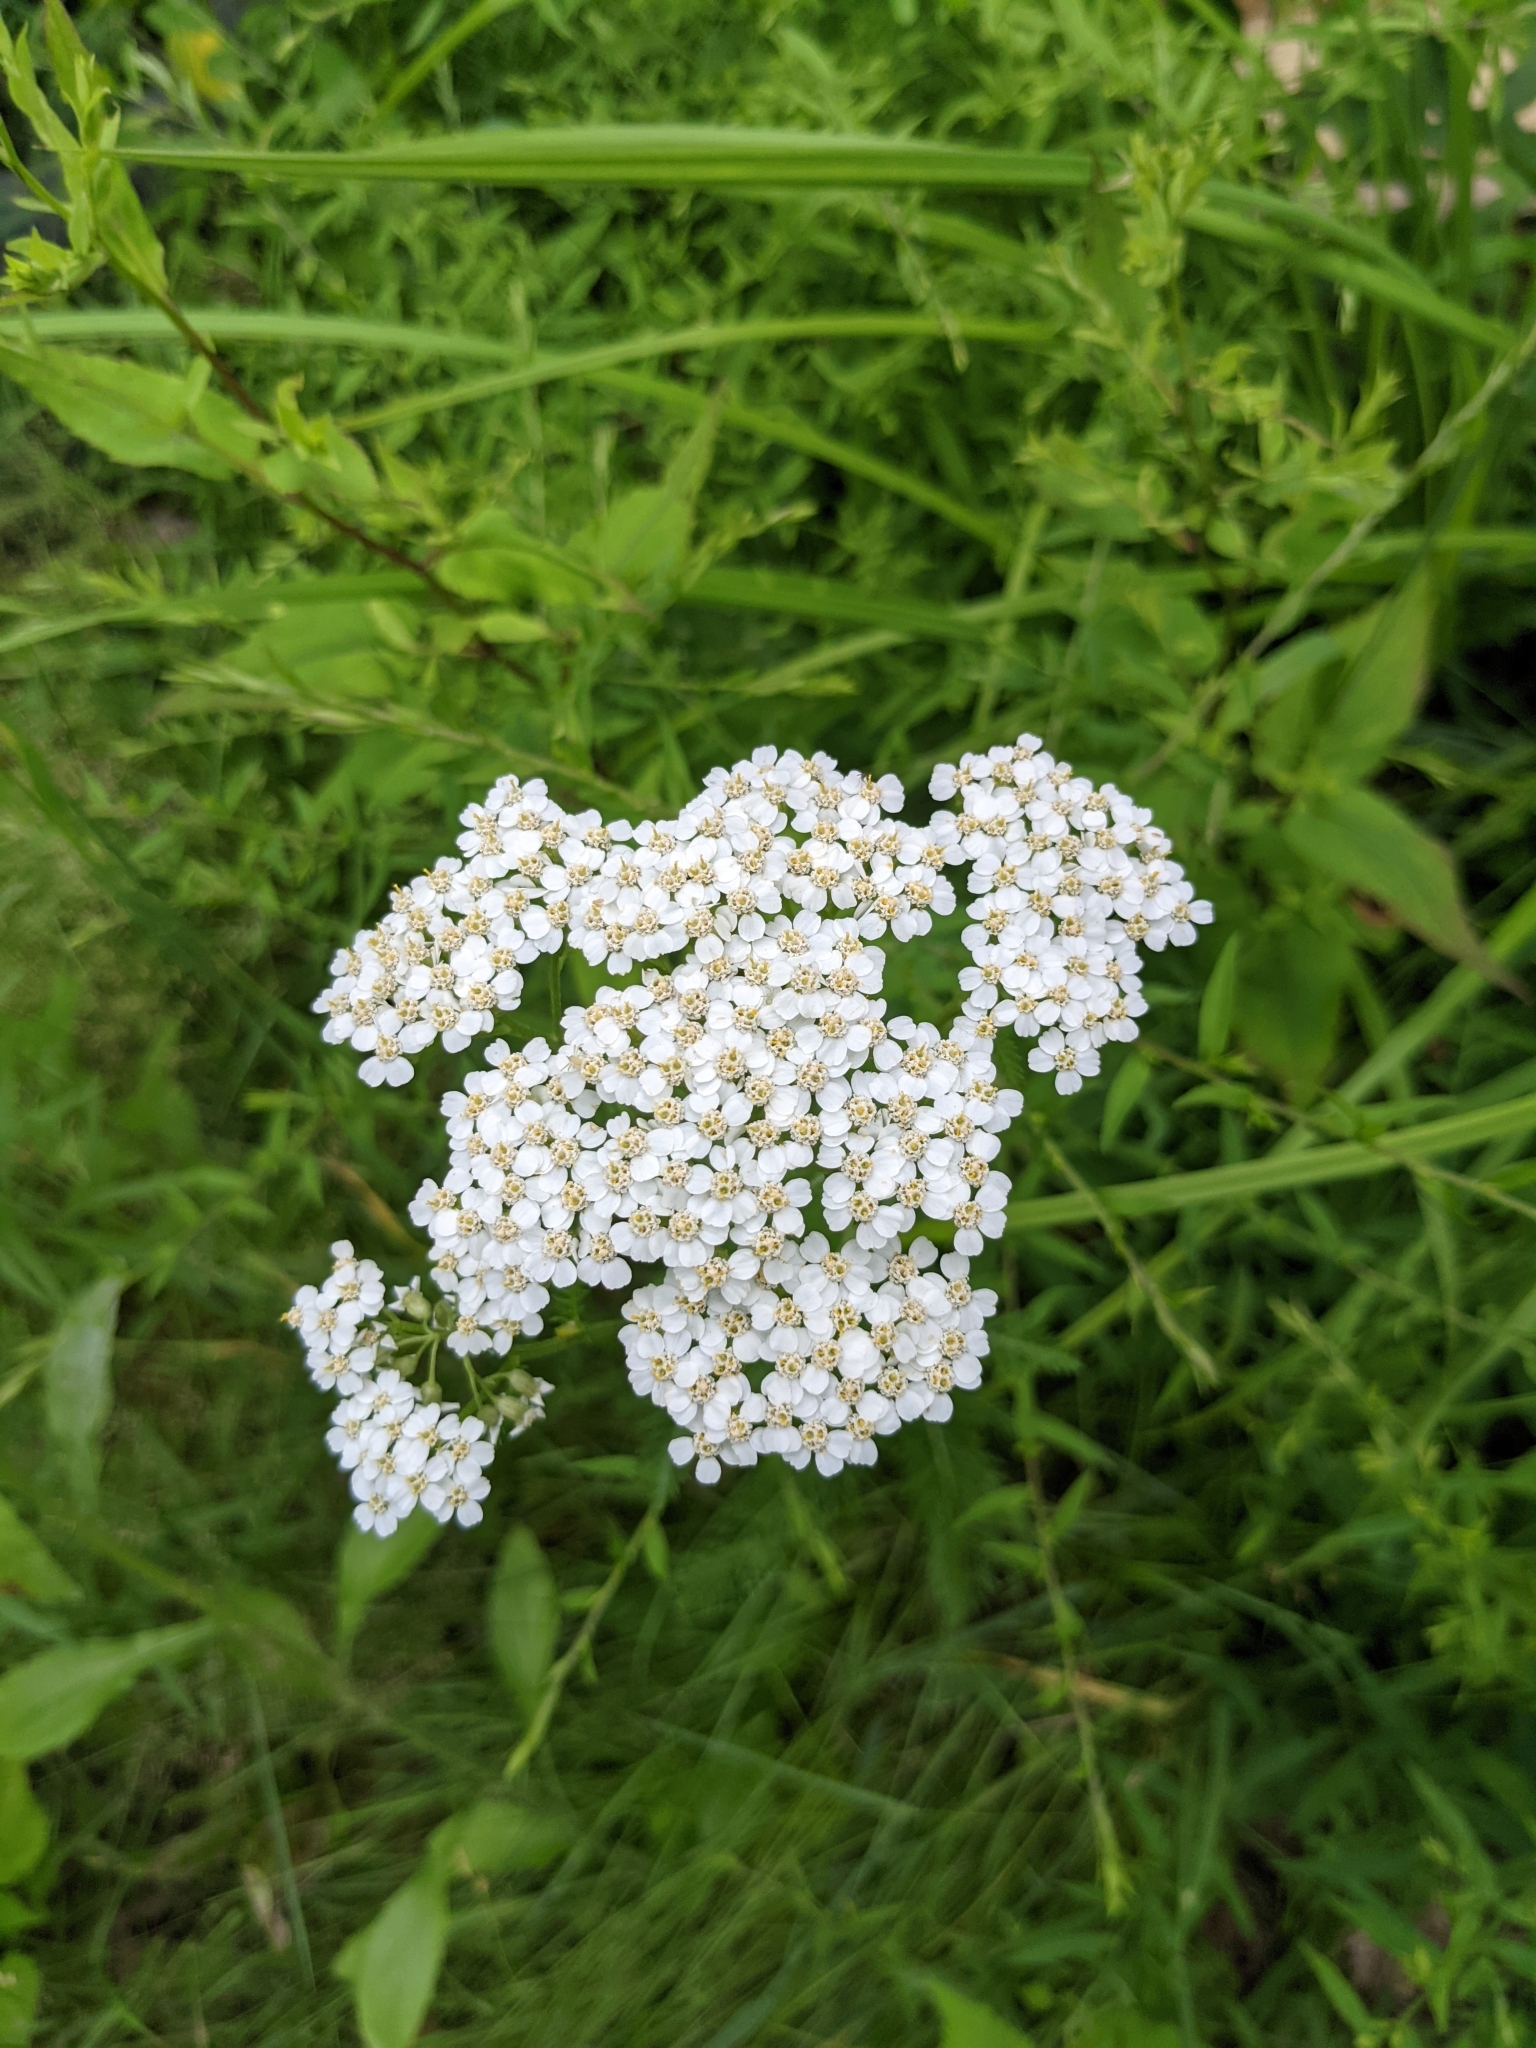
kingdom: Plantae
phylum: Tracheophyta
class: Magnoliopsida
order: Asterales
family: Asteraceae
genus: Achillea
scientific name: Achillea millefolium
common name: Yarrow
